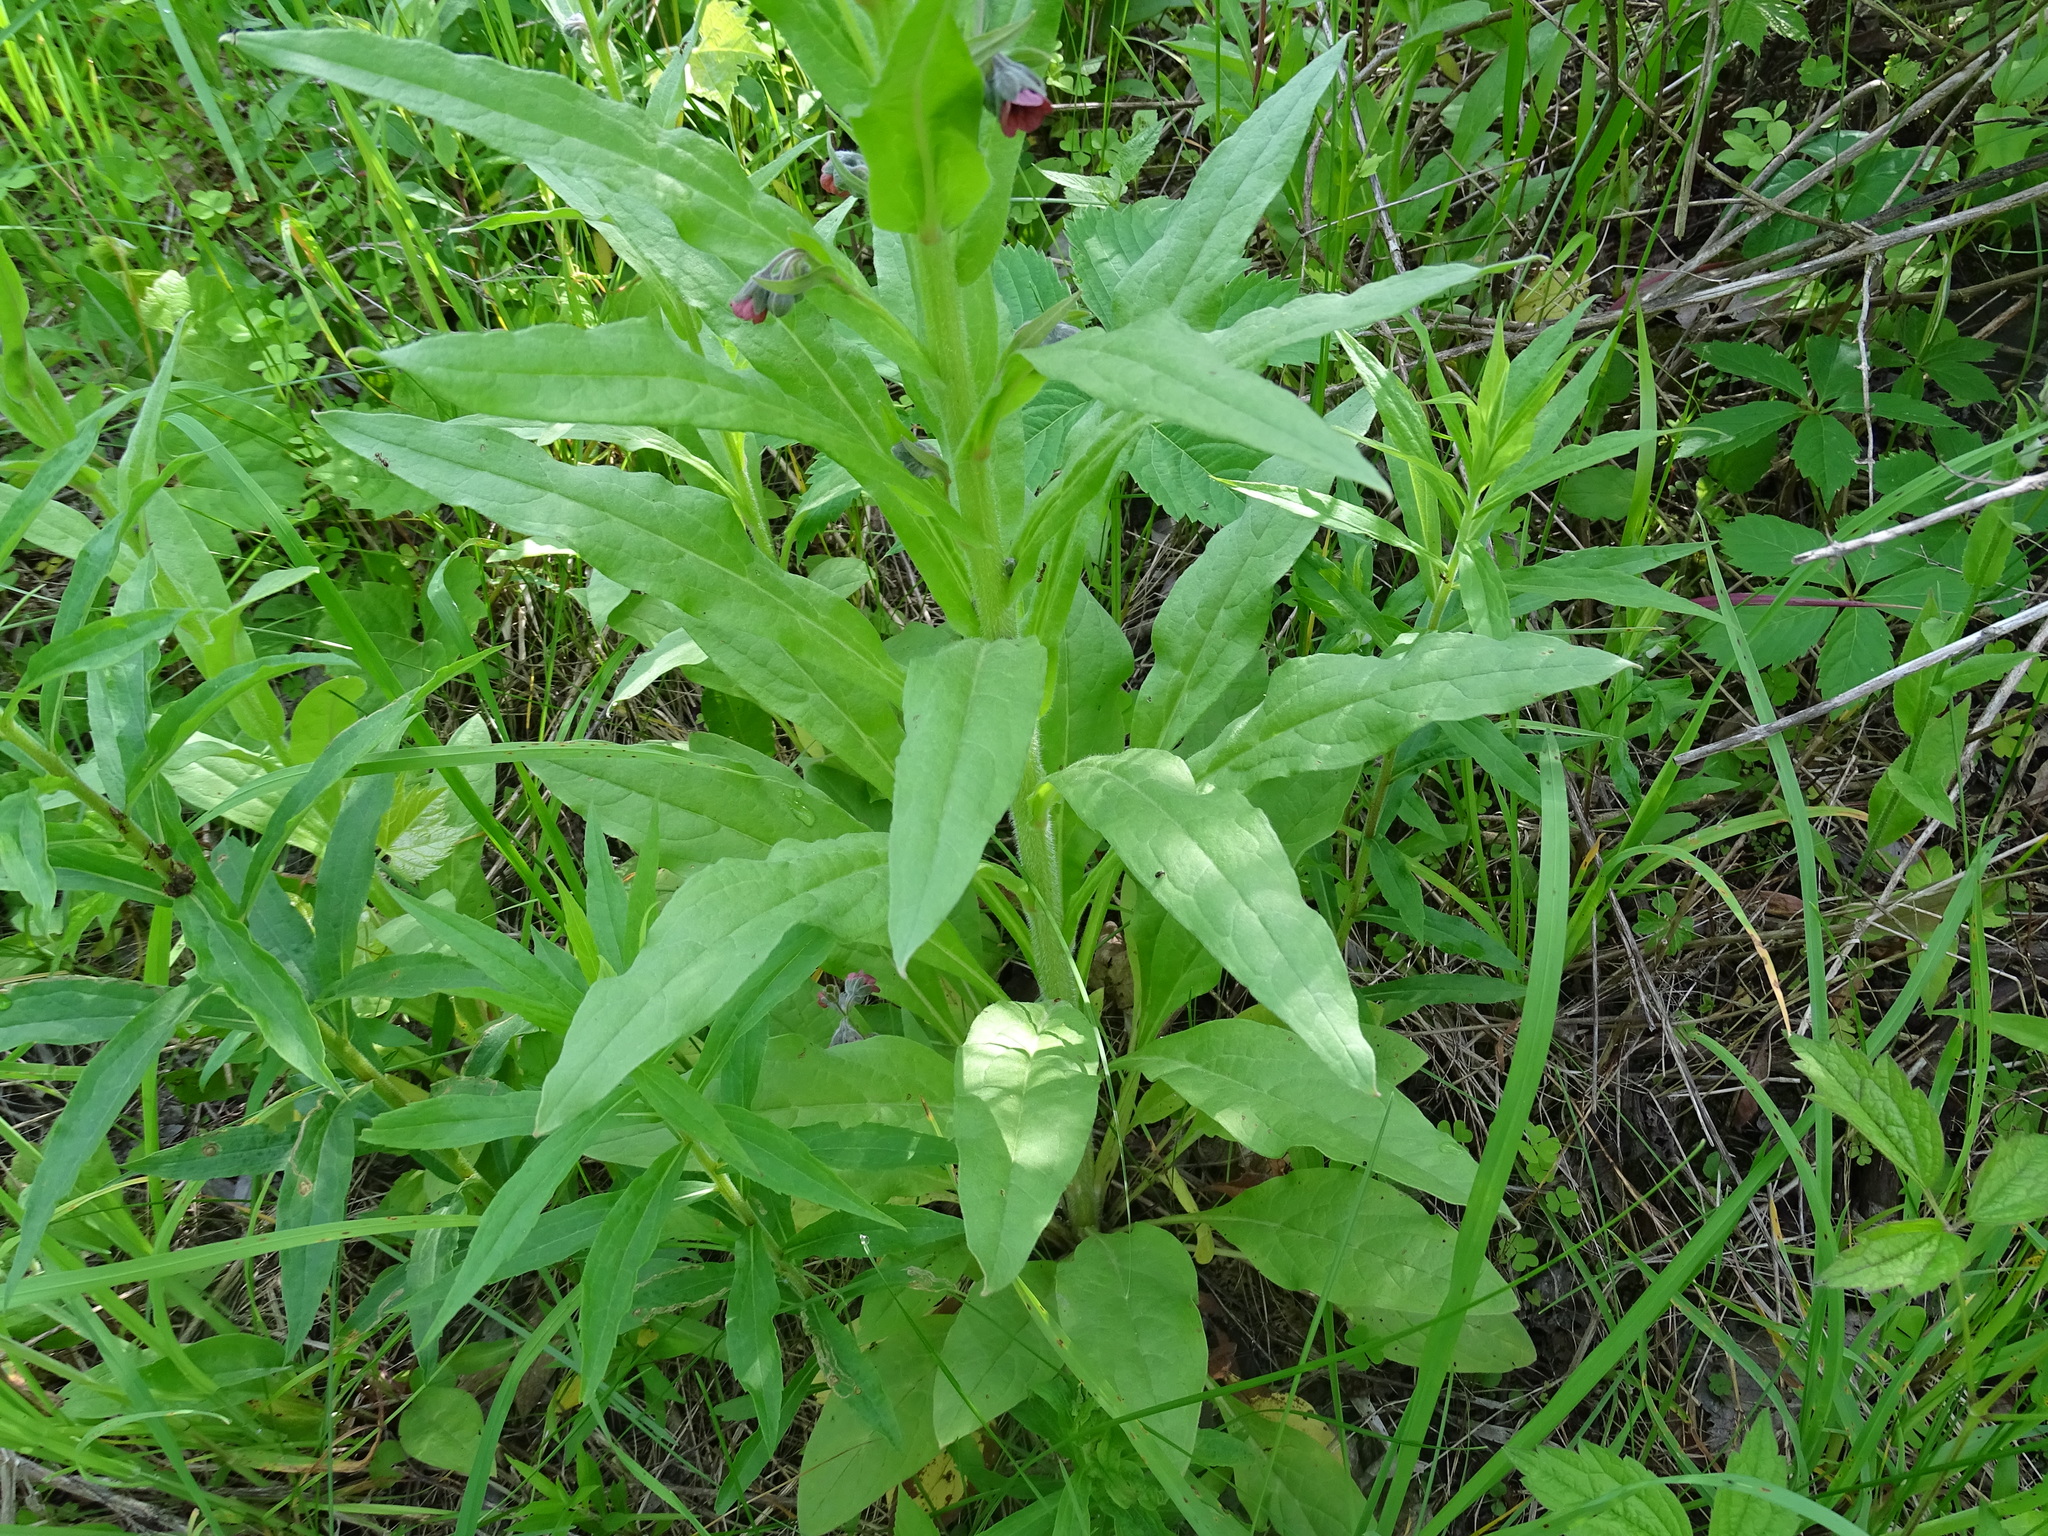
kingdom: Plantae
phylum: Tracheophyta
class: Magnoliopsida
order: Boraginales
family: Boraginaceae
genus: Cynoglossum
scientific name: Cynoglossum officinale
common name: Hound's-tongue
